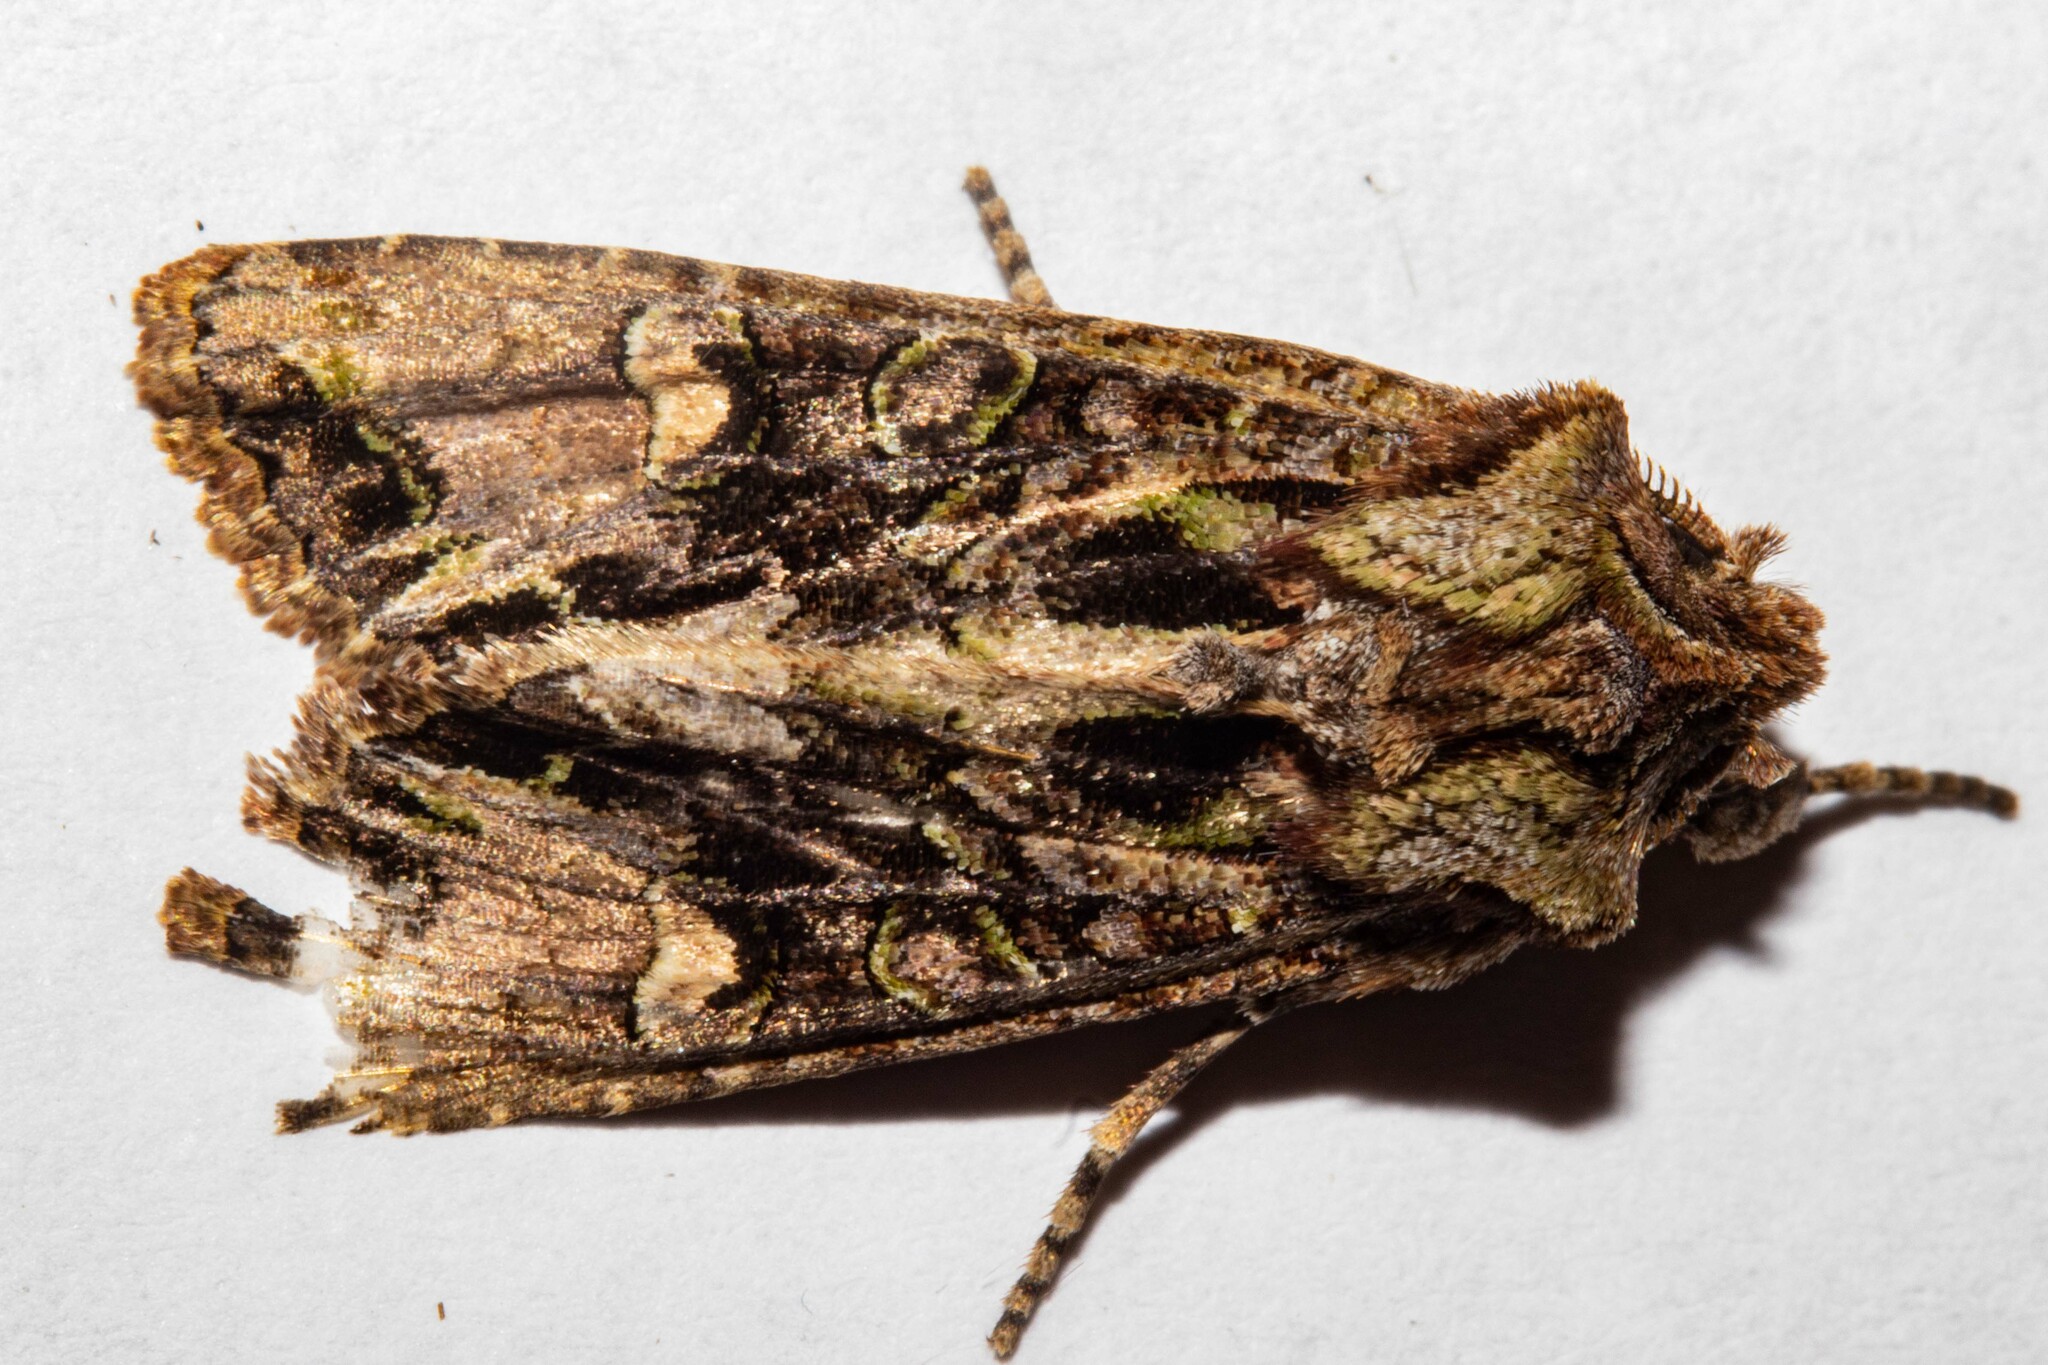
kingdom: Animalia
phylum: Arthropoda
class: Insecta
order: Lepidoptera
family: Noctuidae
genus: Ichneutica
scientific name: Ichneutica insignis
